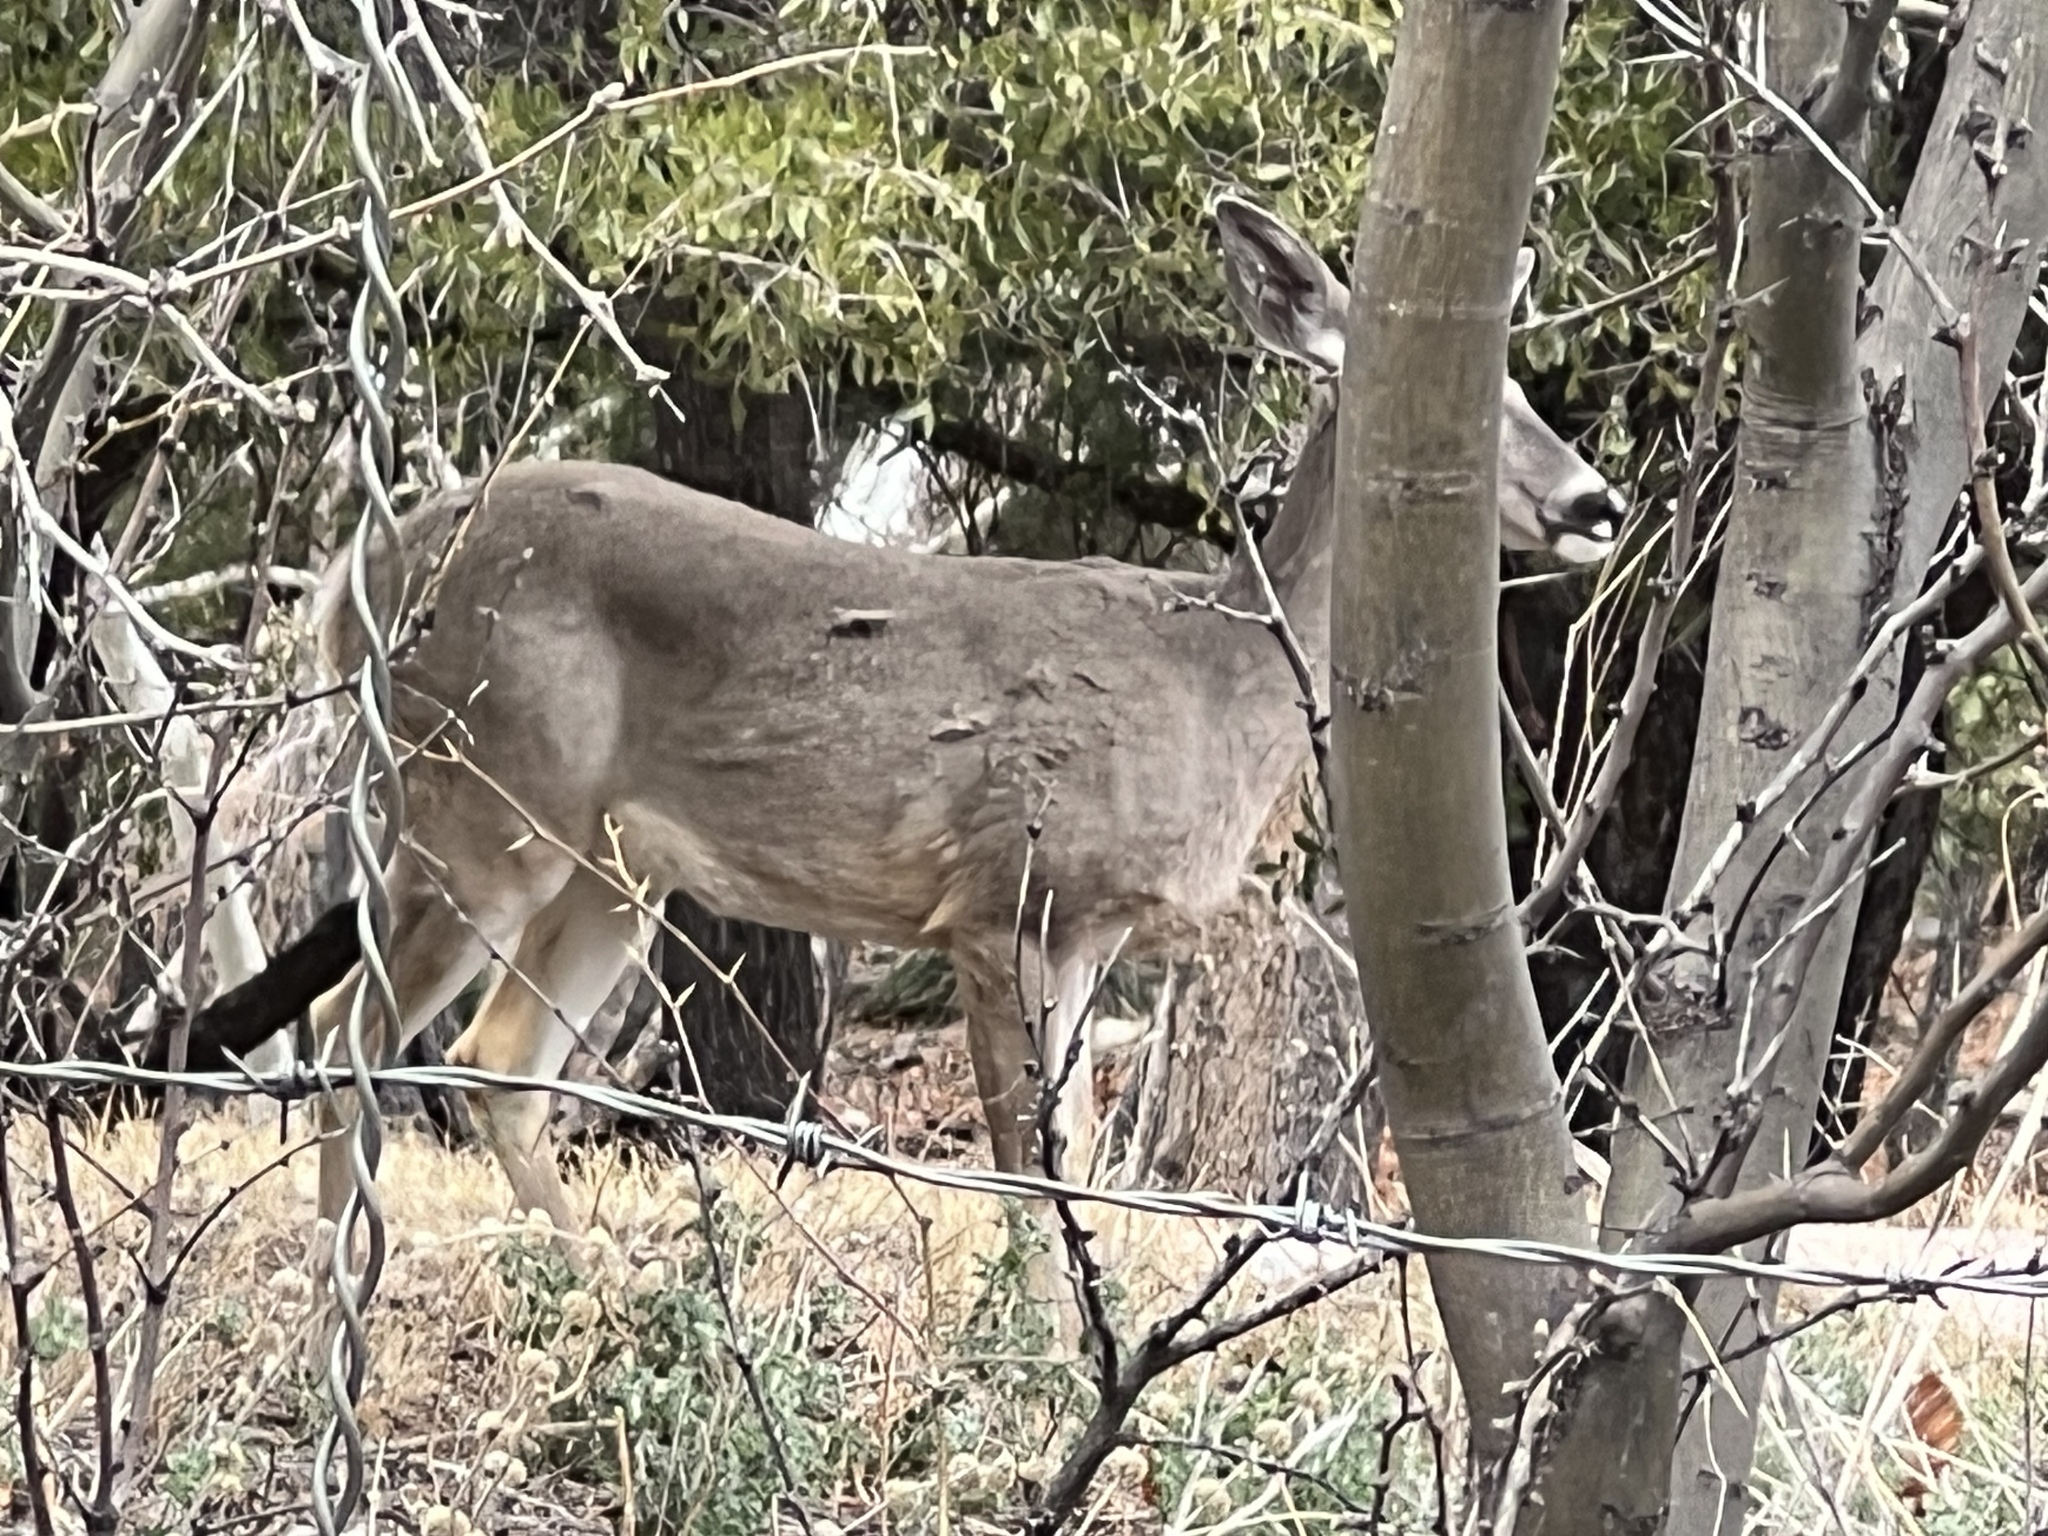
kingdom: Animalia
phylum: Chordata
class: Mammalia
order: Artiodactyla
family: Cervidae
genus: Odocoileus
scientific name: Odocoileus virginianus
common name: White-tailed deer
